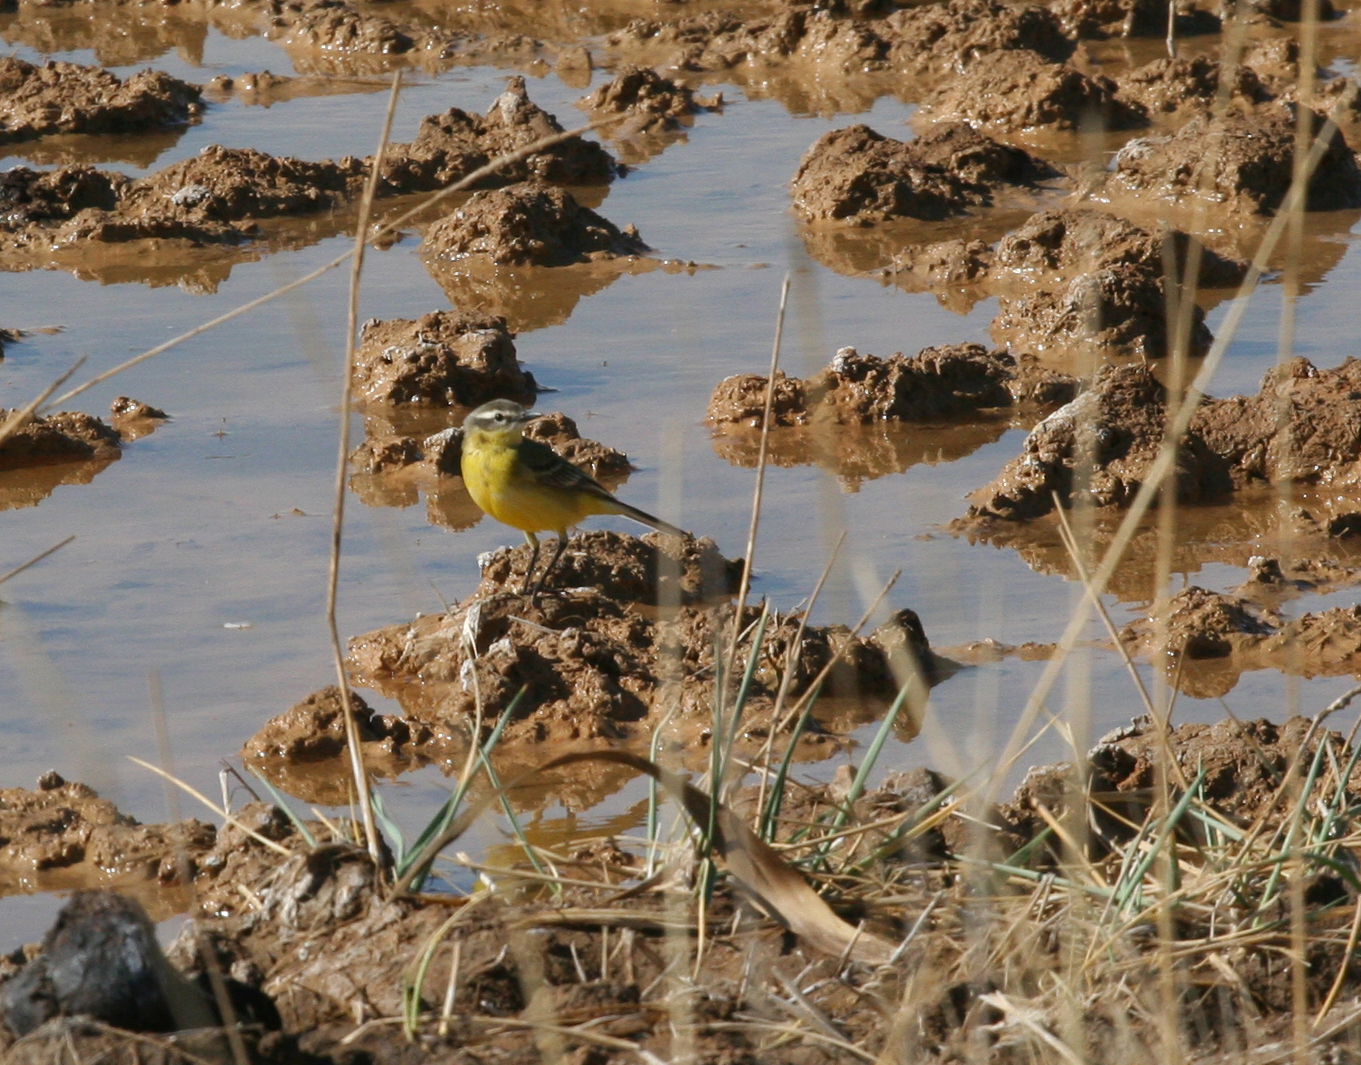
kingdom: Animalia
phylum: Chordata
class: Aves
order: Passeriformes
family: Motacillidae
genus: Motacilla
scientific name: Motacilla flava
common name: Western yellow wagtail
